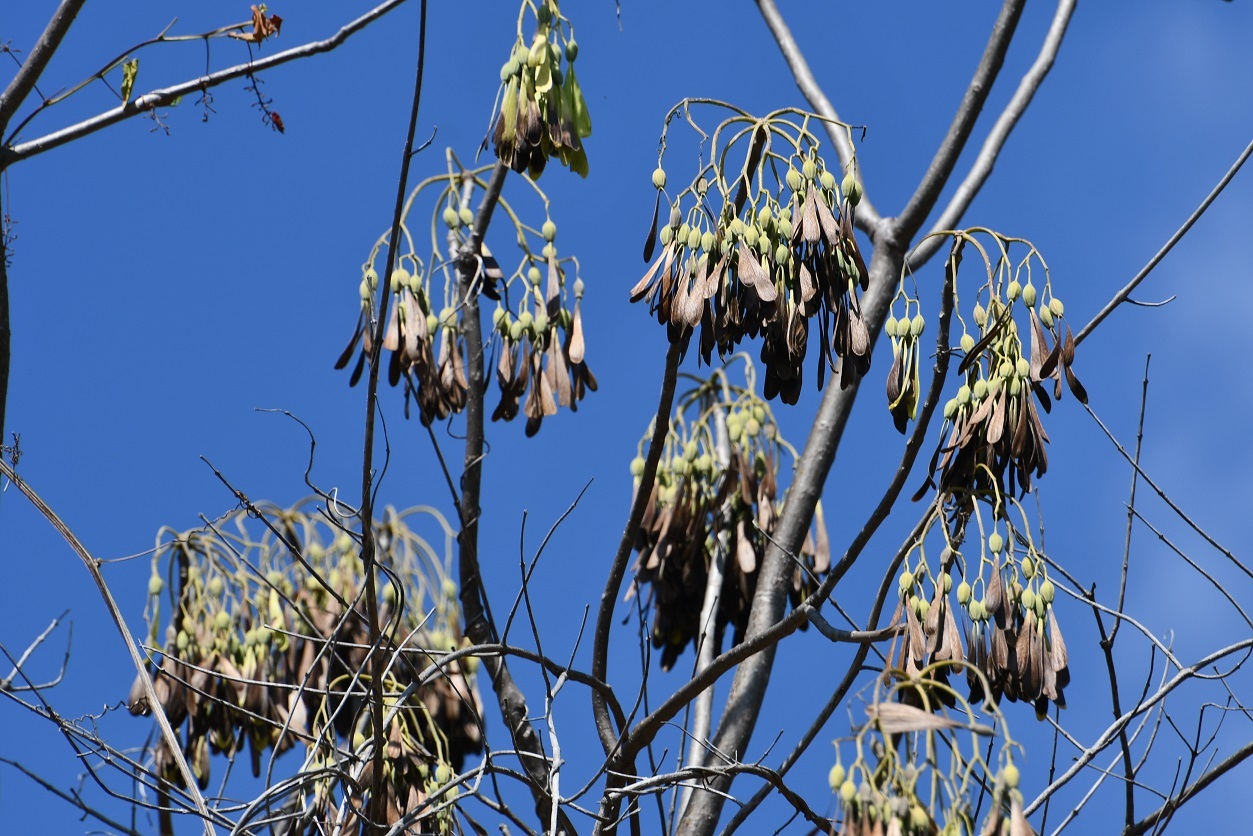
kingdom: Plantae
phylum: Tracheophyta
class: Magnoliopsida
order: Laurales
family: Hernandiaceae
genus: Gyrocarpus
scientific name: Gyrocarpus mocinoi
